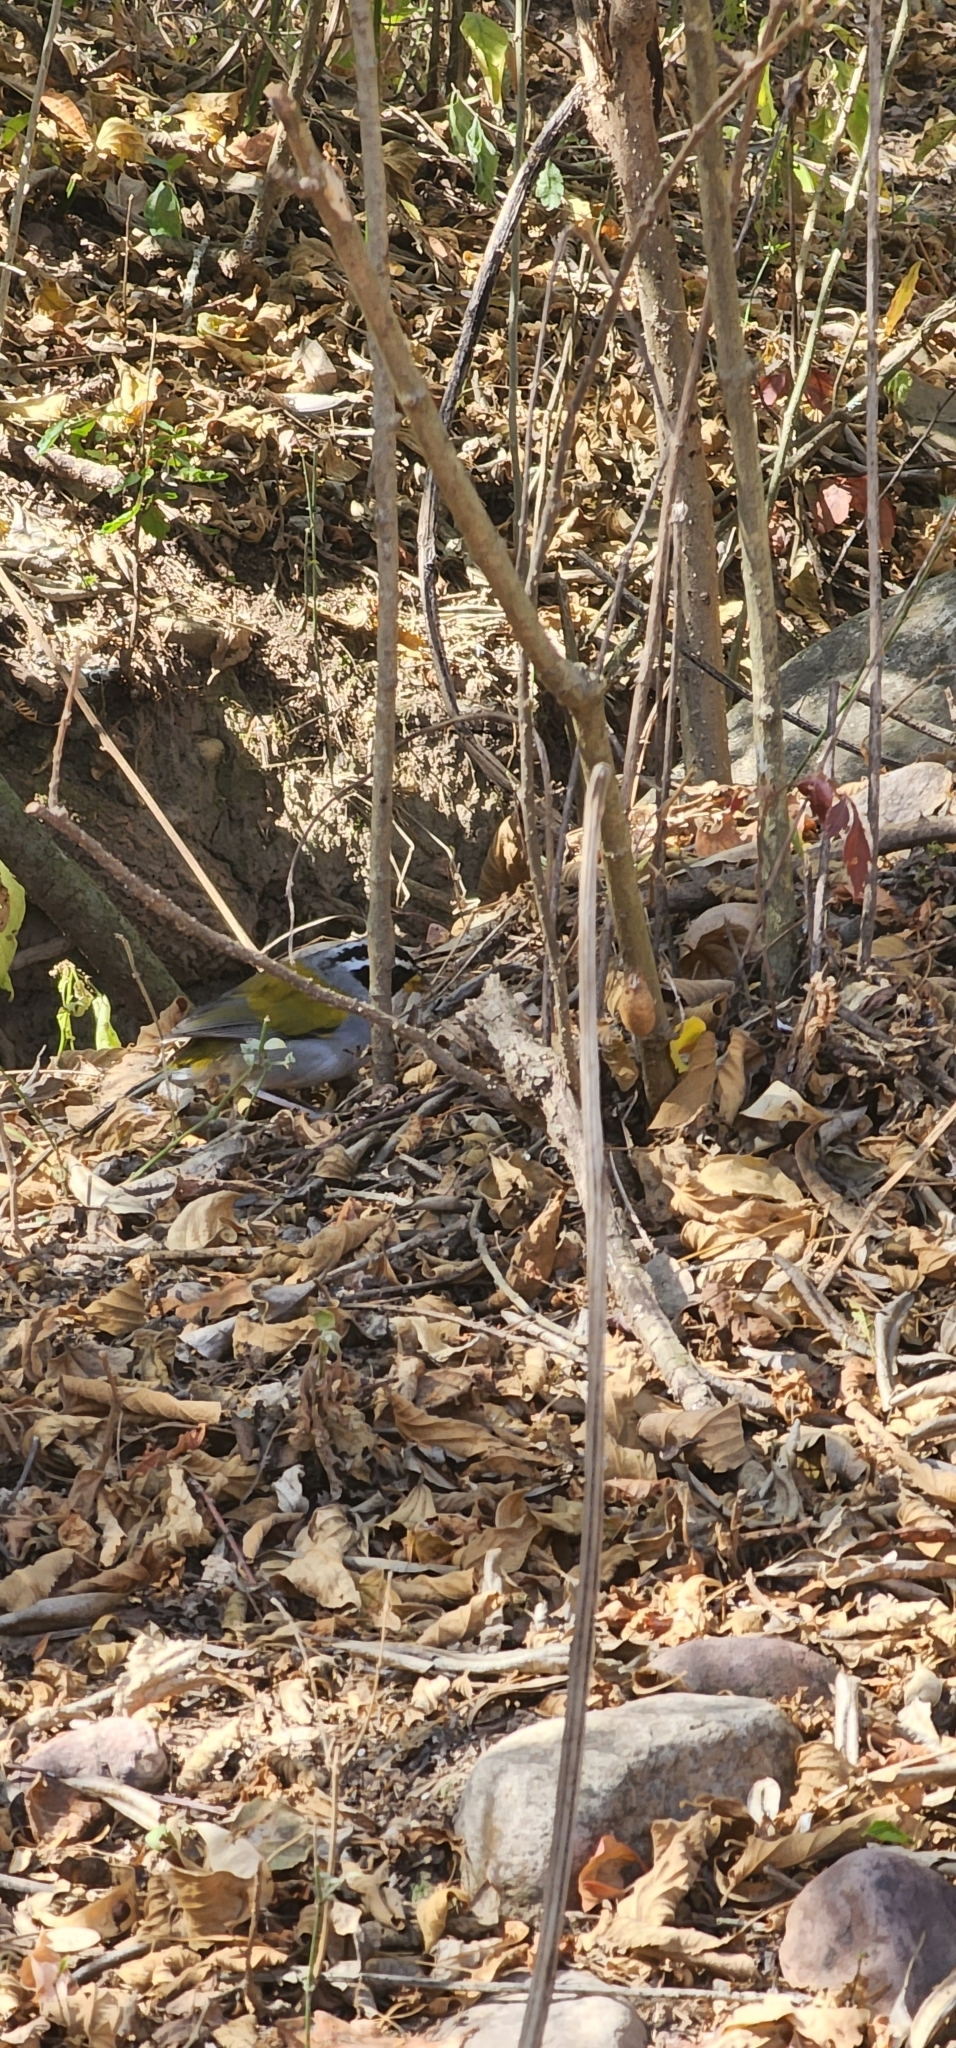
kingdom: Animalia
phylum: Chordata
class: Aves
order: Passeriformes
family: Passerellidae
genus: Arremon
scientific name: Arremon dorbignii
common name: Moss-backed sparrow
